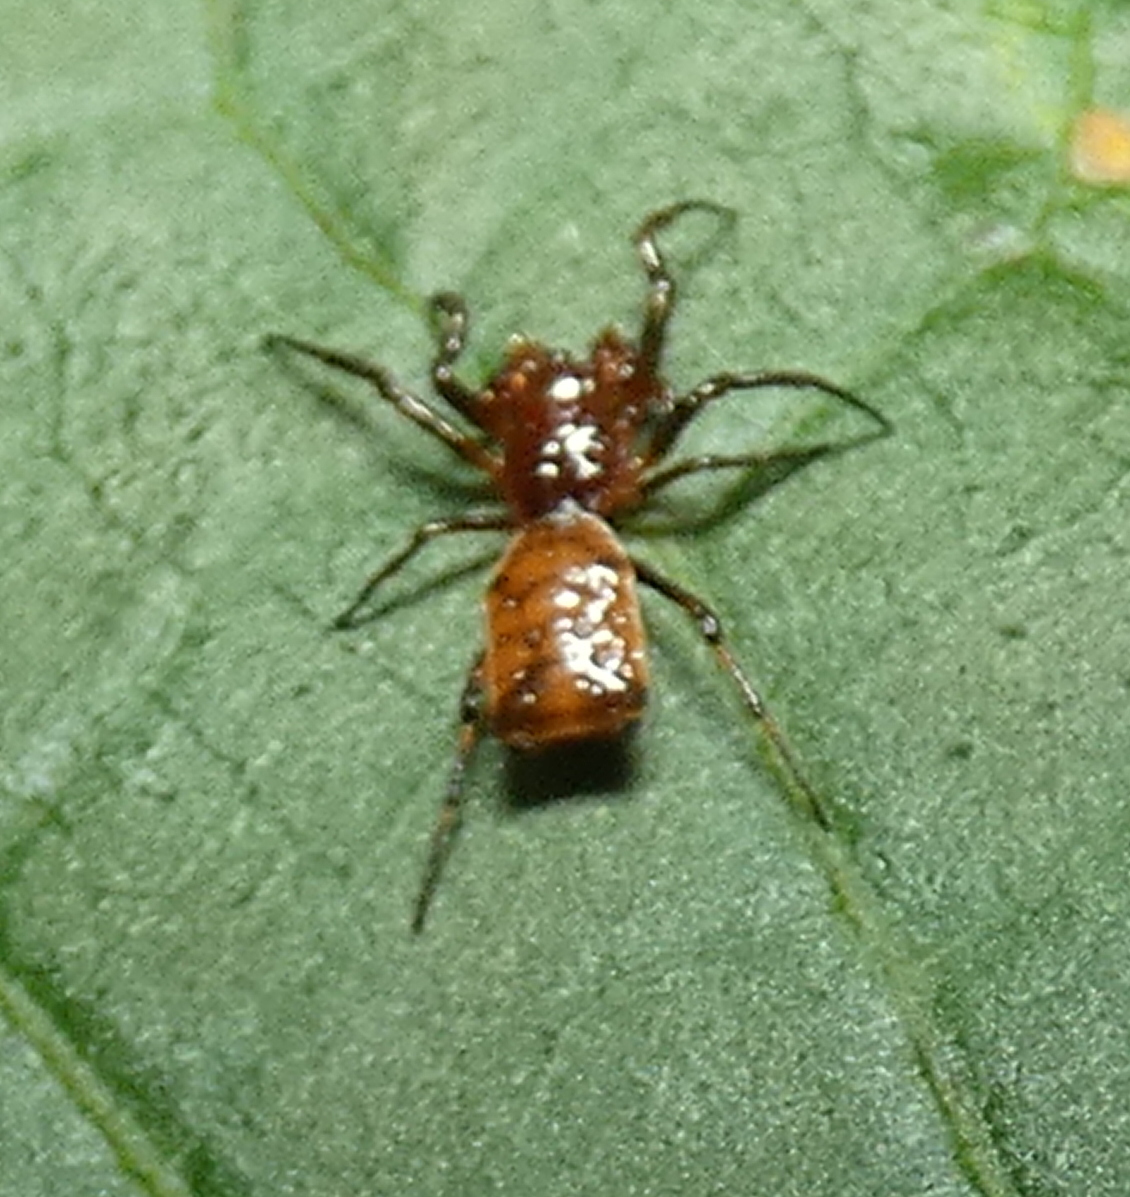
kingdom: Animalia
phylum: Arthropoda
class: Arachnida
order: Araneae
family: Araneidae
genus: Micrathena
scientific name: Micrathena picta
